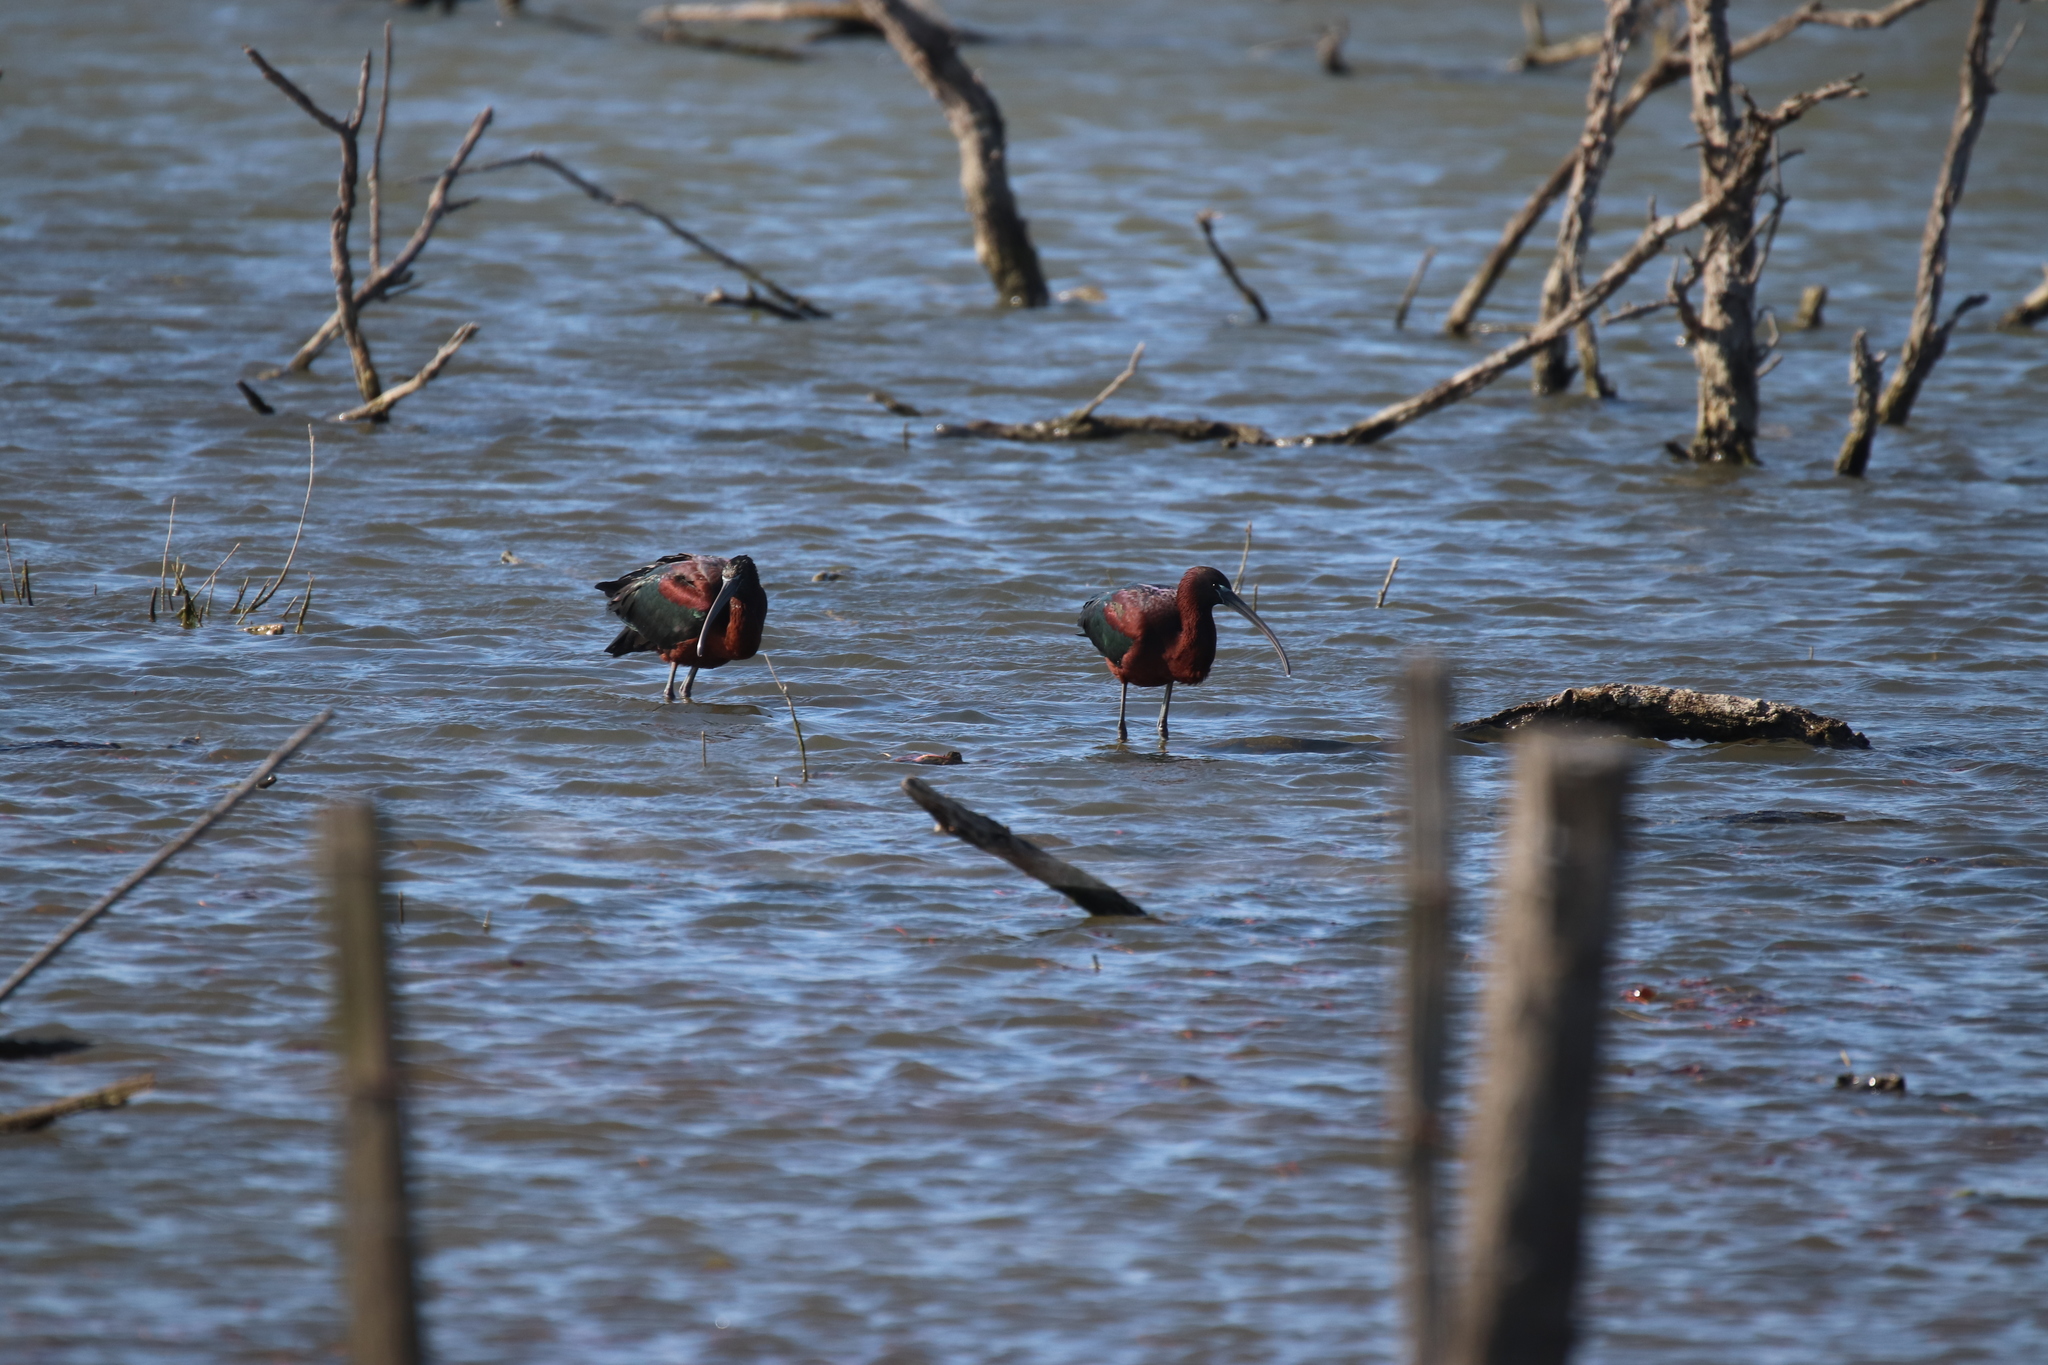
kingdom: Animalia
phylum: Chordata
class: Aves
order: Pelecaniformes
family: Threskiornithidae
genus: Plegadis
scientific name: Plegadis falcinellus
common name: Glossy ibis
